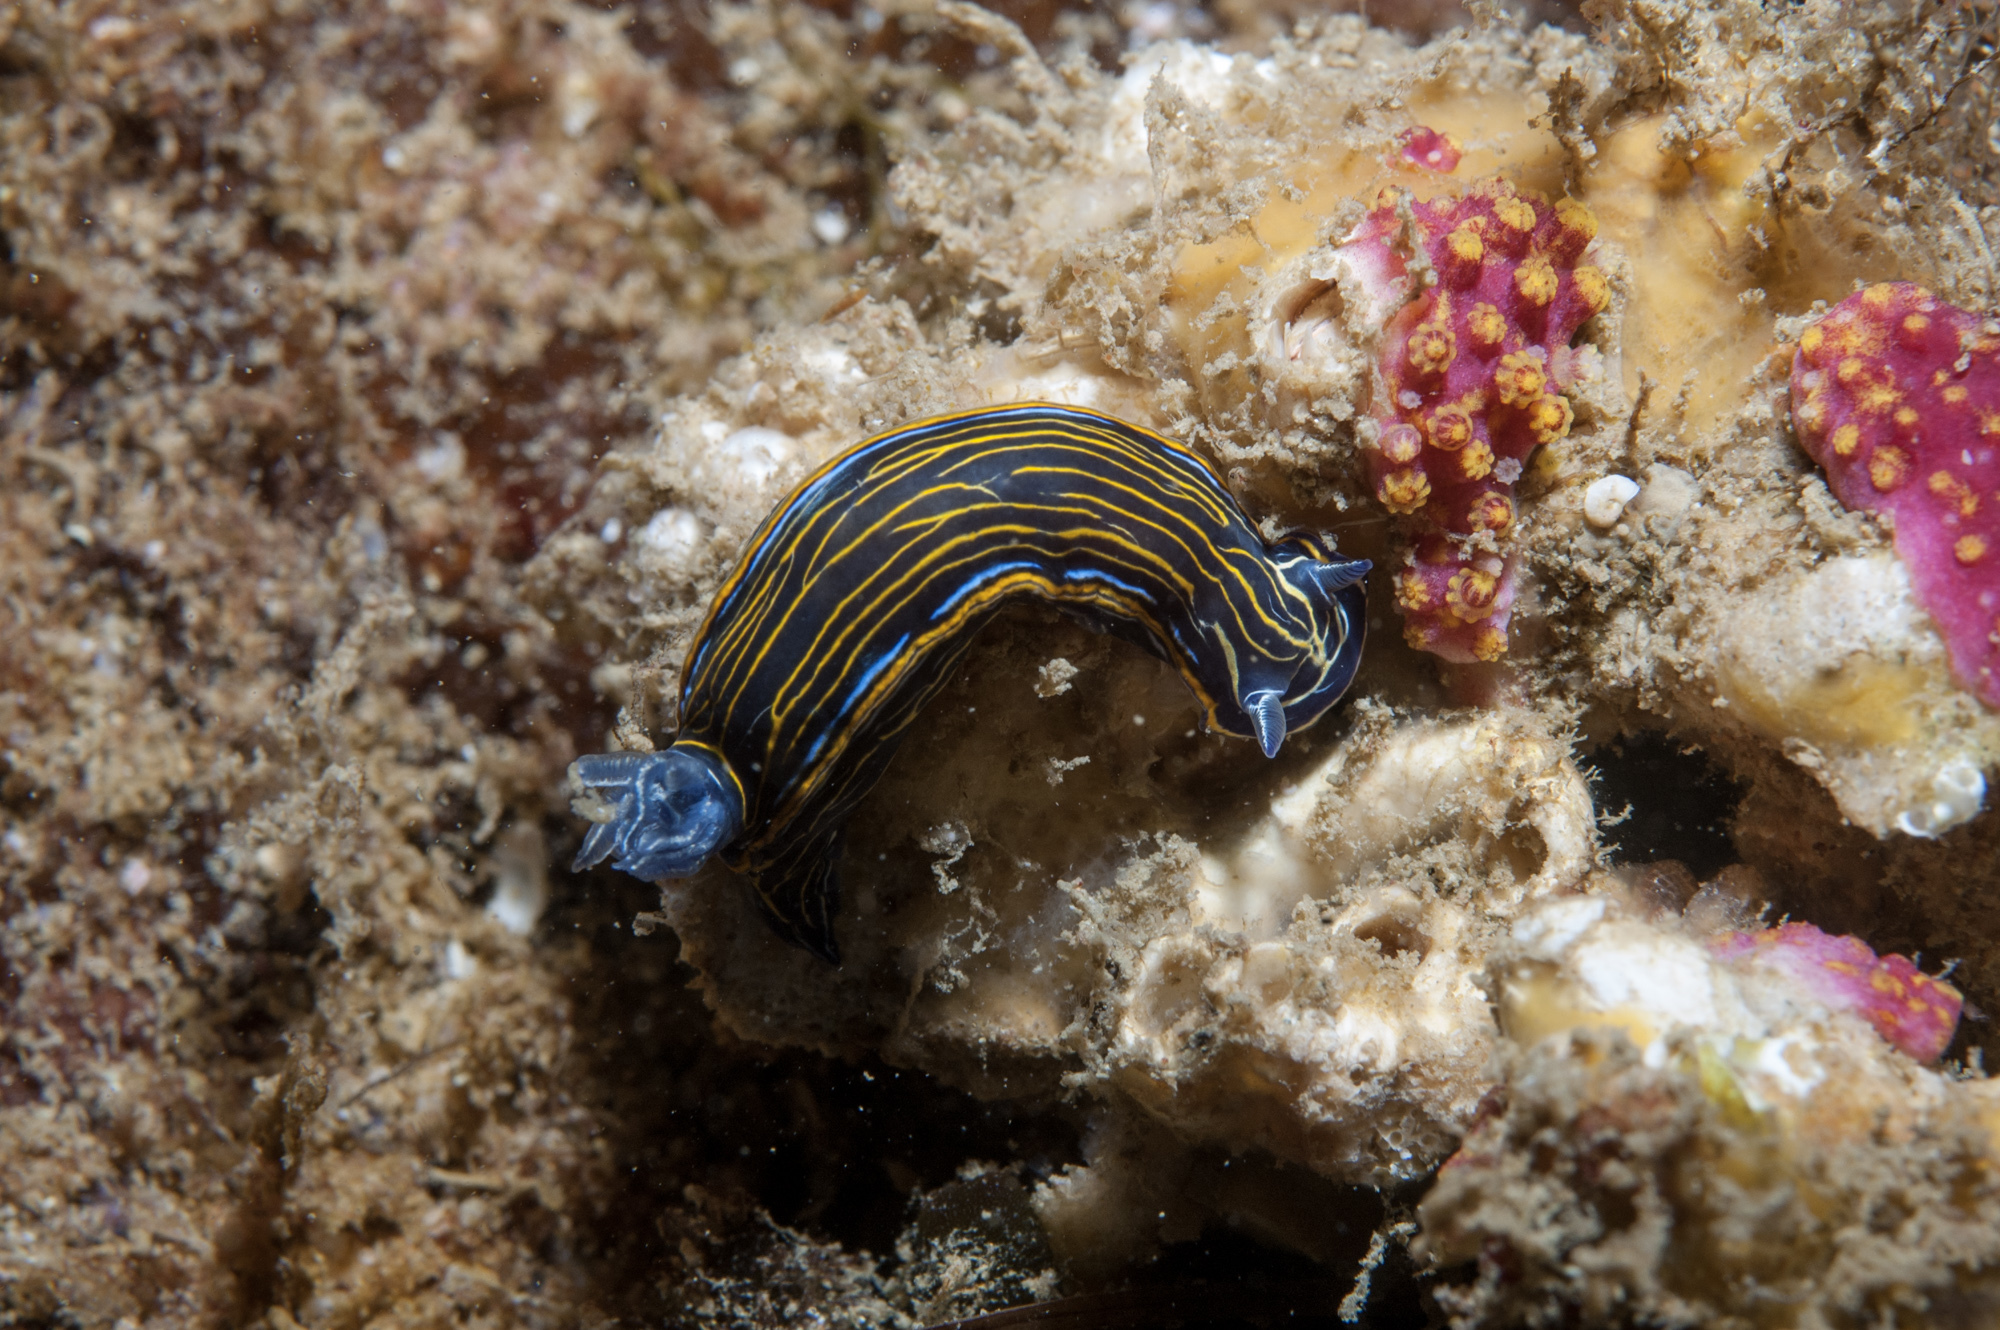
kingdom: Animalia
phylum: Mollusca
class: Gastropoda
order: Nudibranchia
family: Chromodorididae
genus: Felimare
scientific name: Felimare villafranca
